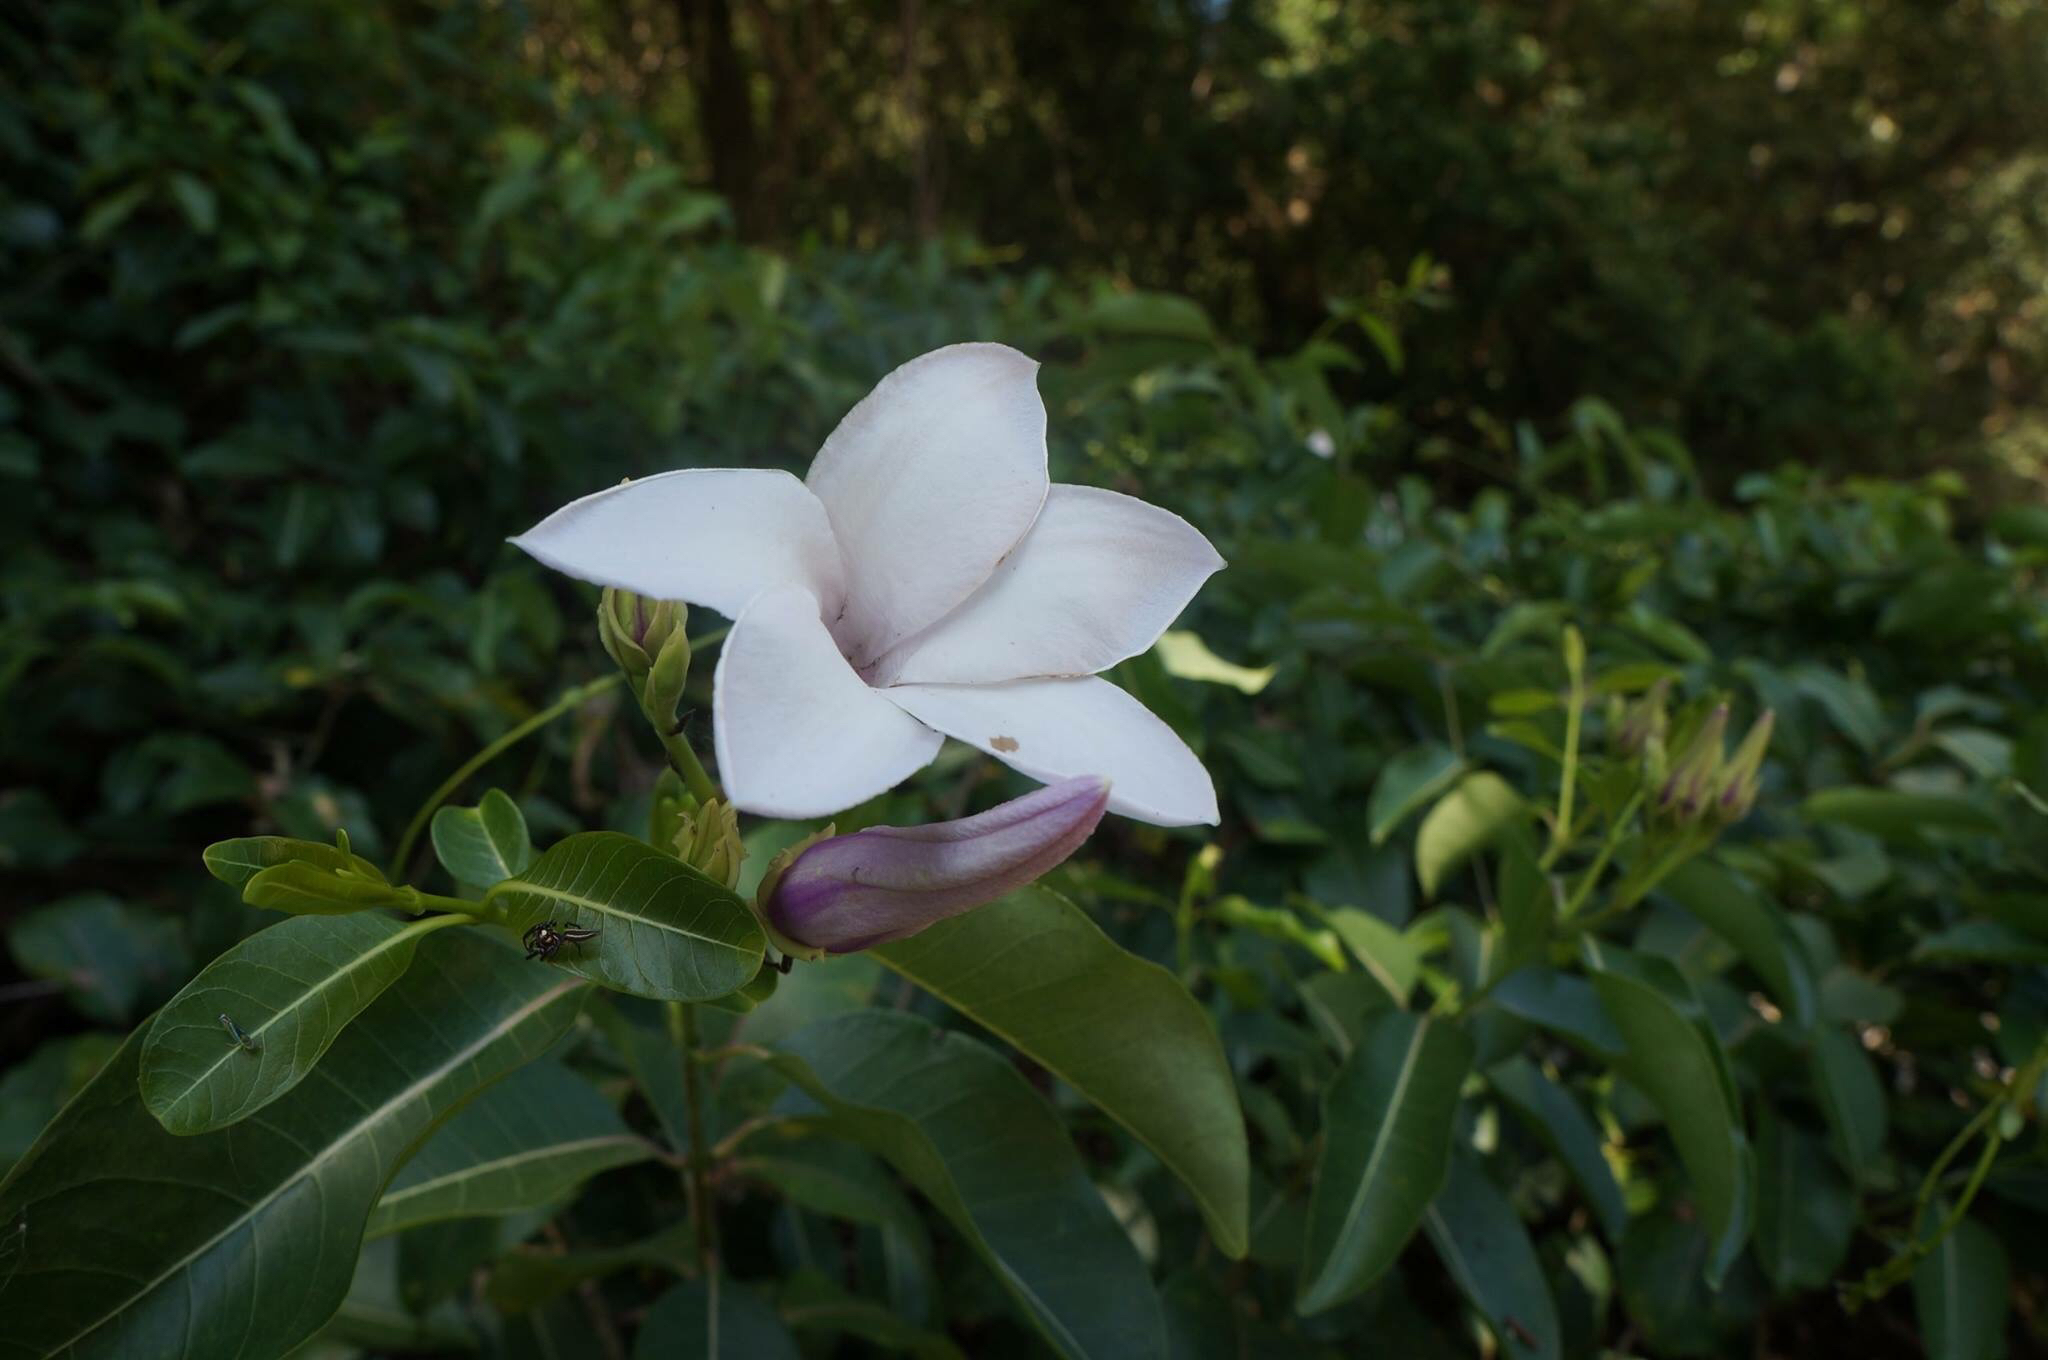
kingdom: Plantae
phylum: Tracheophyta
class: Magnoliopsida
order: Gentianales
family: Apocynaceae
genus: Cryptostegia
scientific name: Cryptostegia grandiflora
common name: Palay rubbervine
